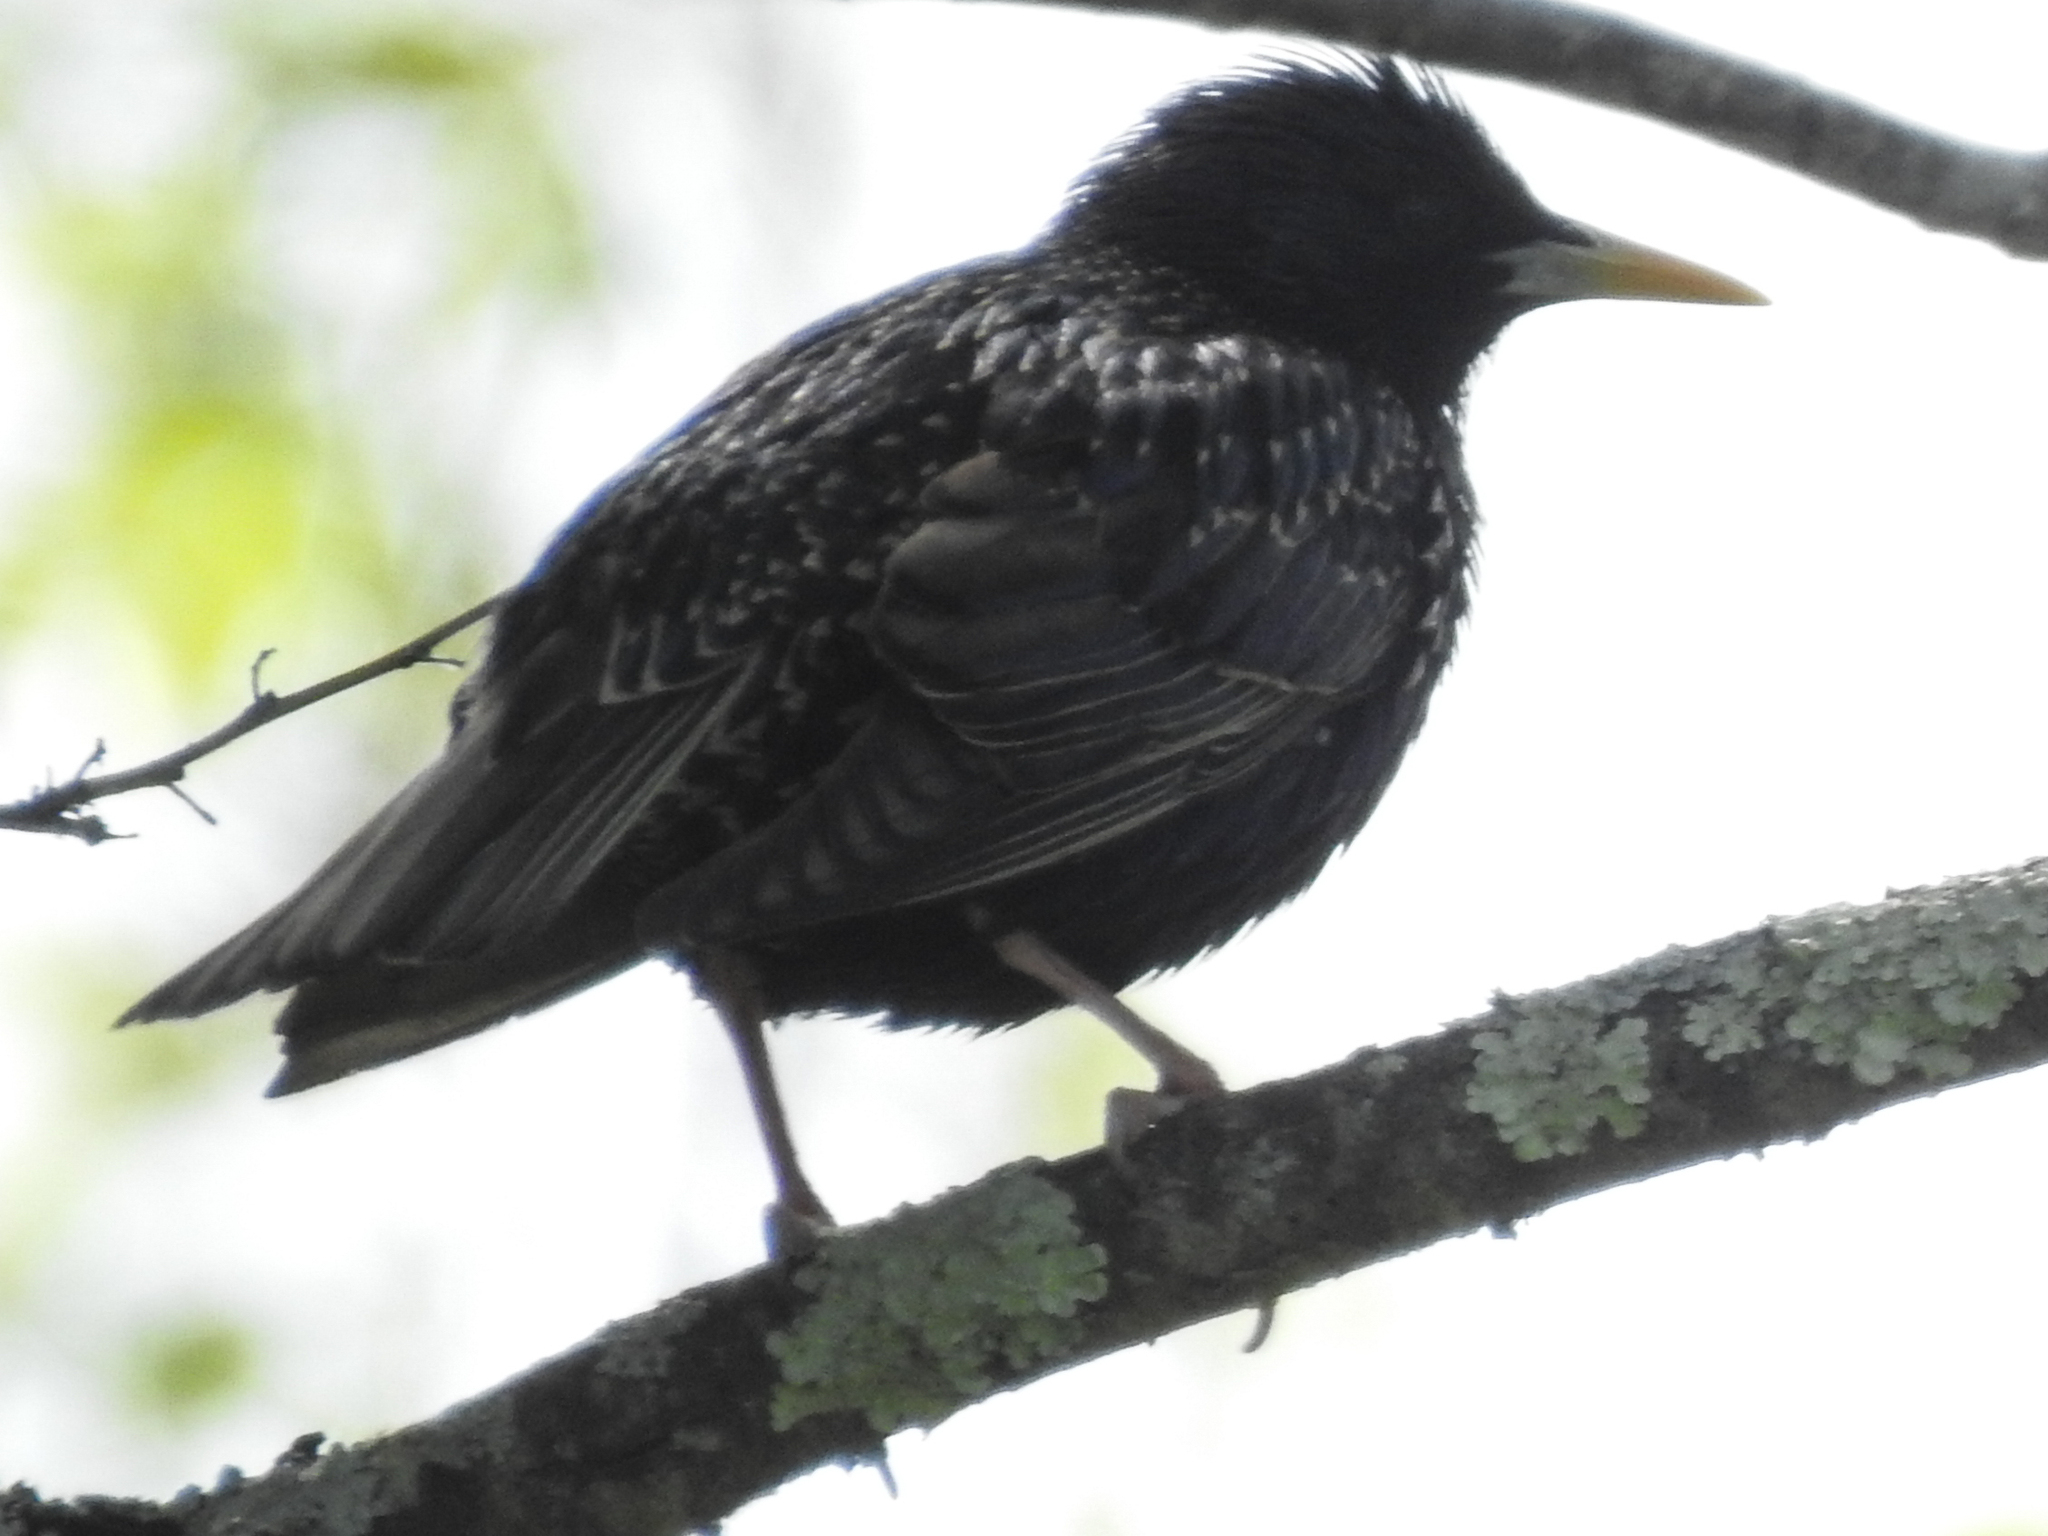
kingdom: Animalia
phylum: Chordata
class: Aves
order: Passeriformes
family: Sturnidae
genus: Sturnus
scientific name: Sturnus vulgaris
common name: Common starling
